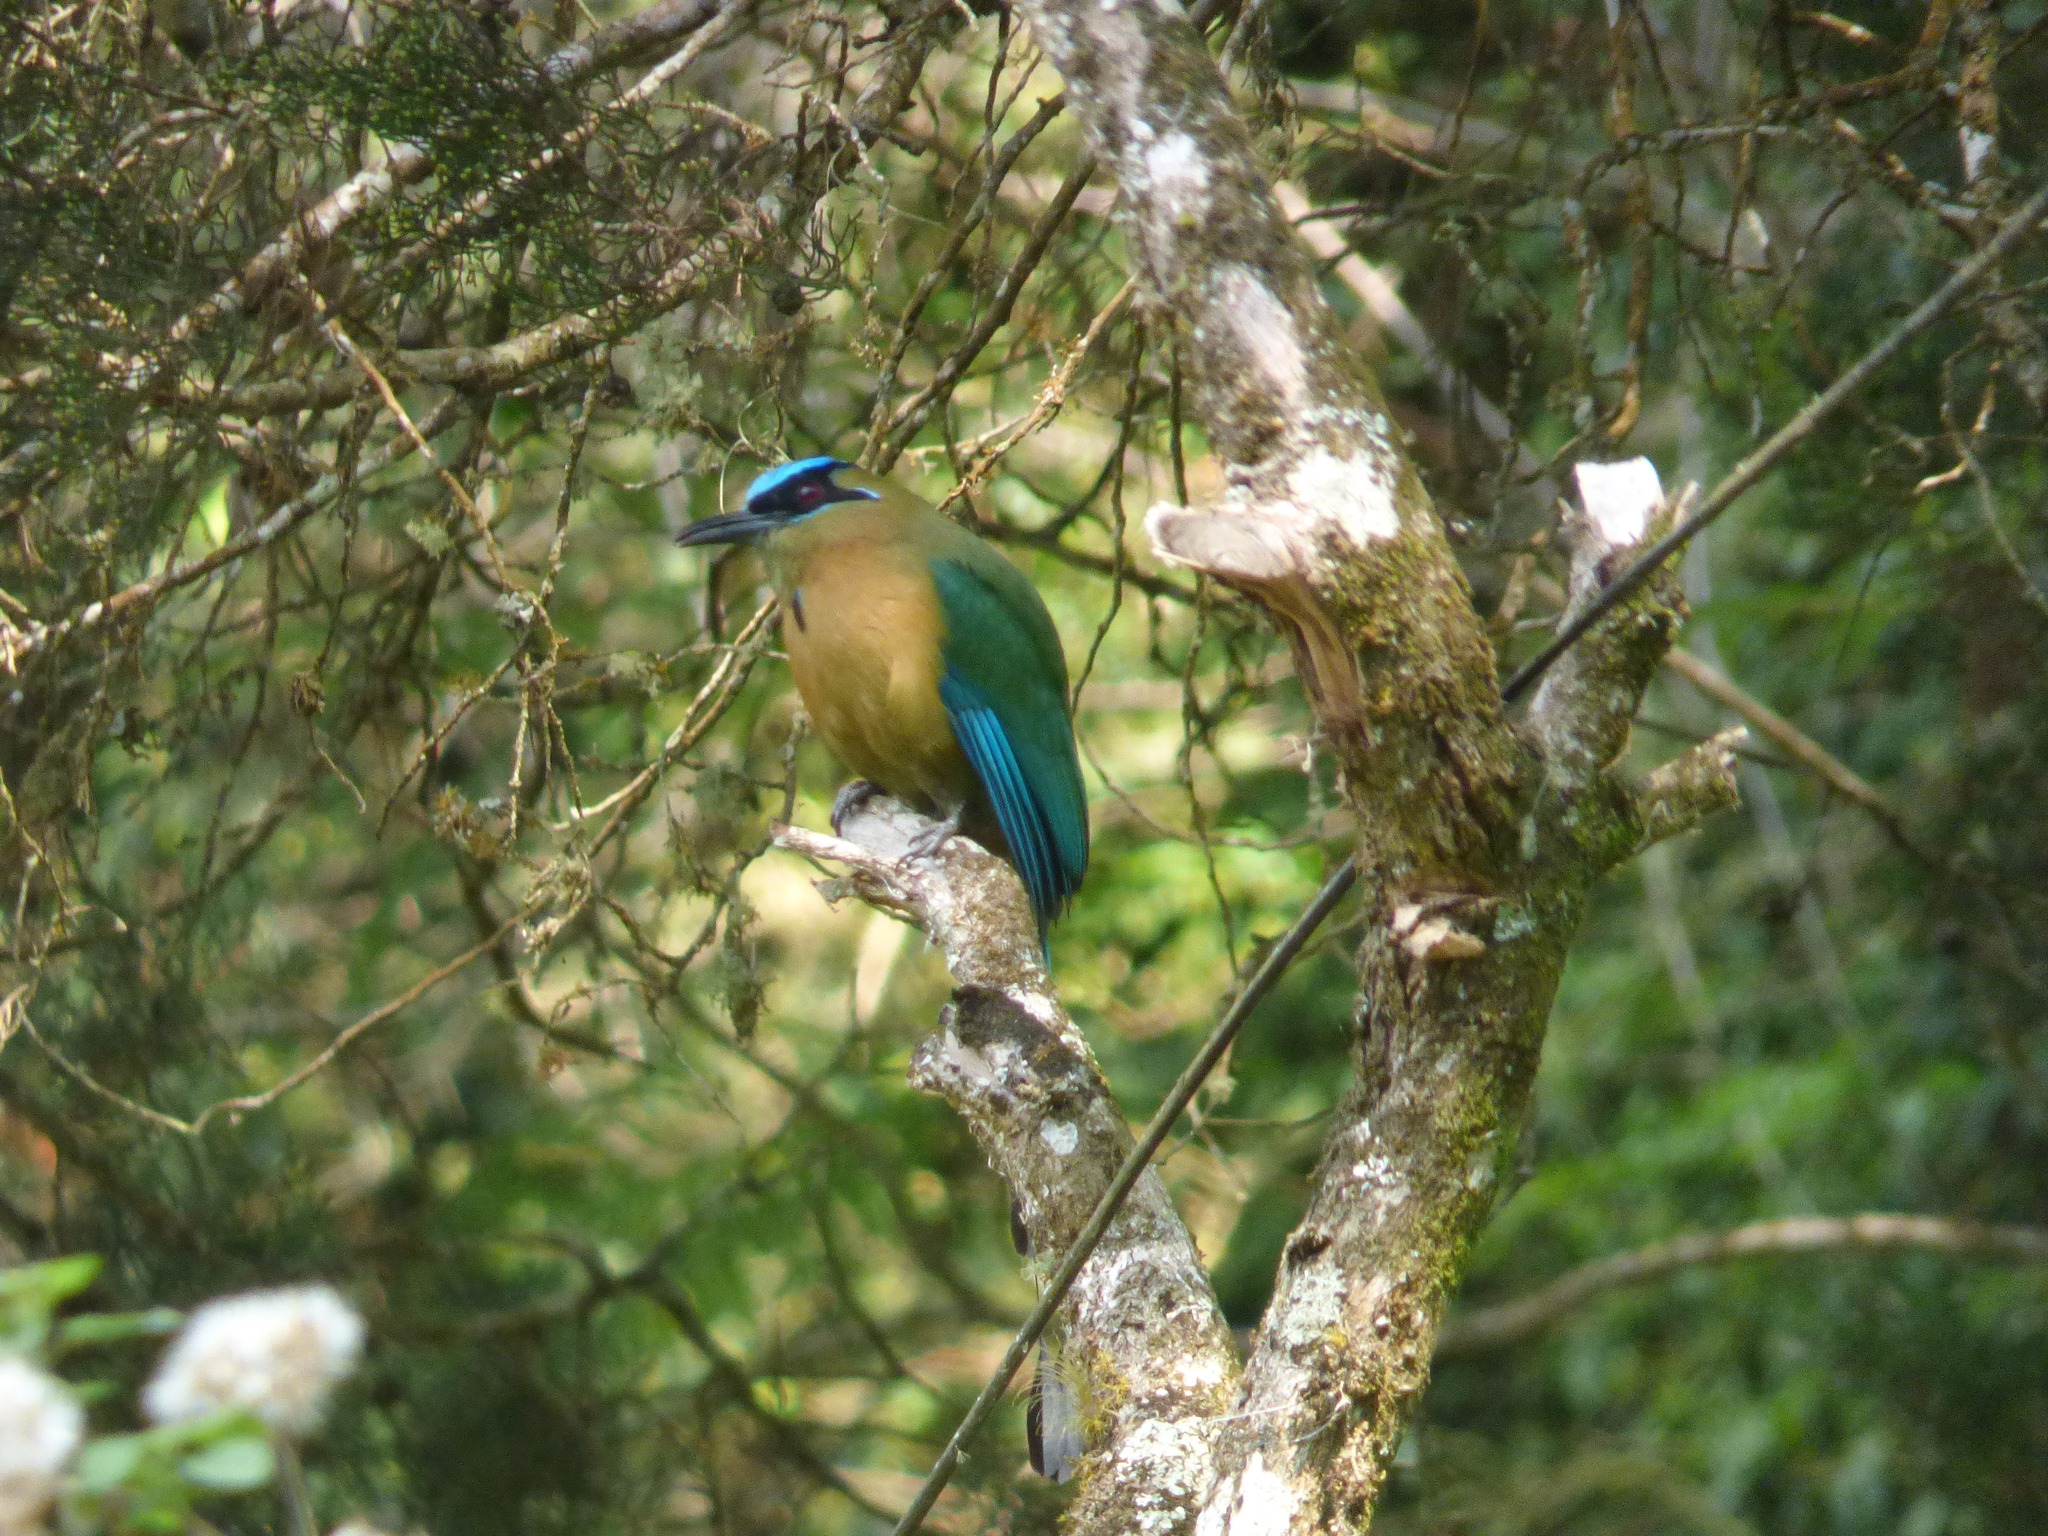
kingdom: Animalia
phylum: Chordata
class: Aves
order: Coraciiformes
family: Momotidae
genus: Momotus
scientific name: Momotus lessonii
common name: Lesson's motmot
